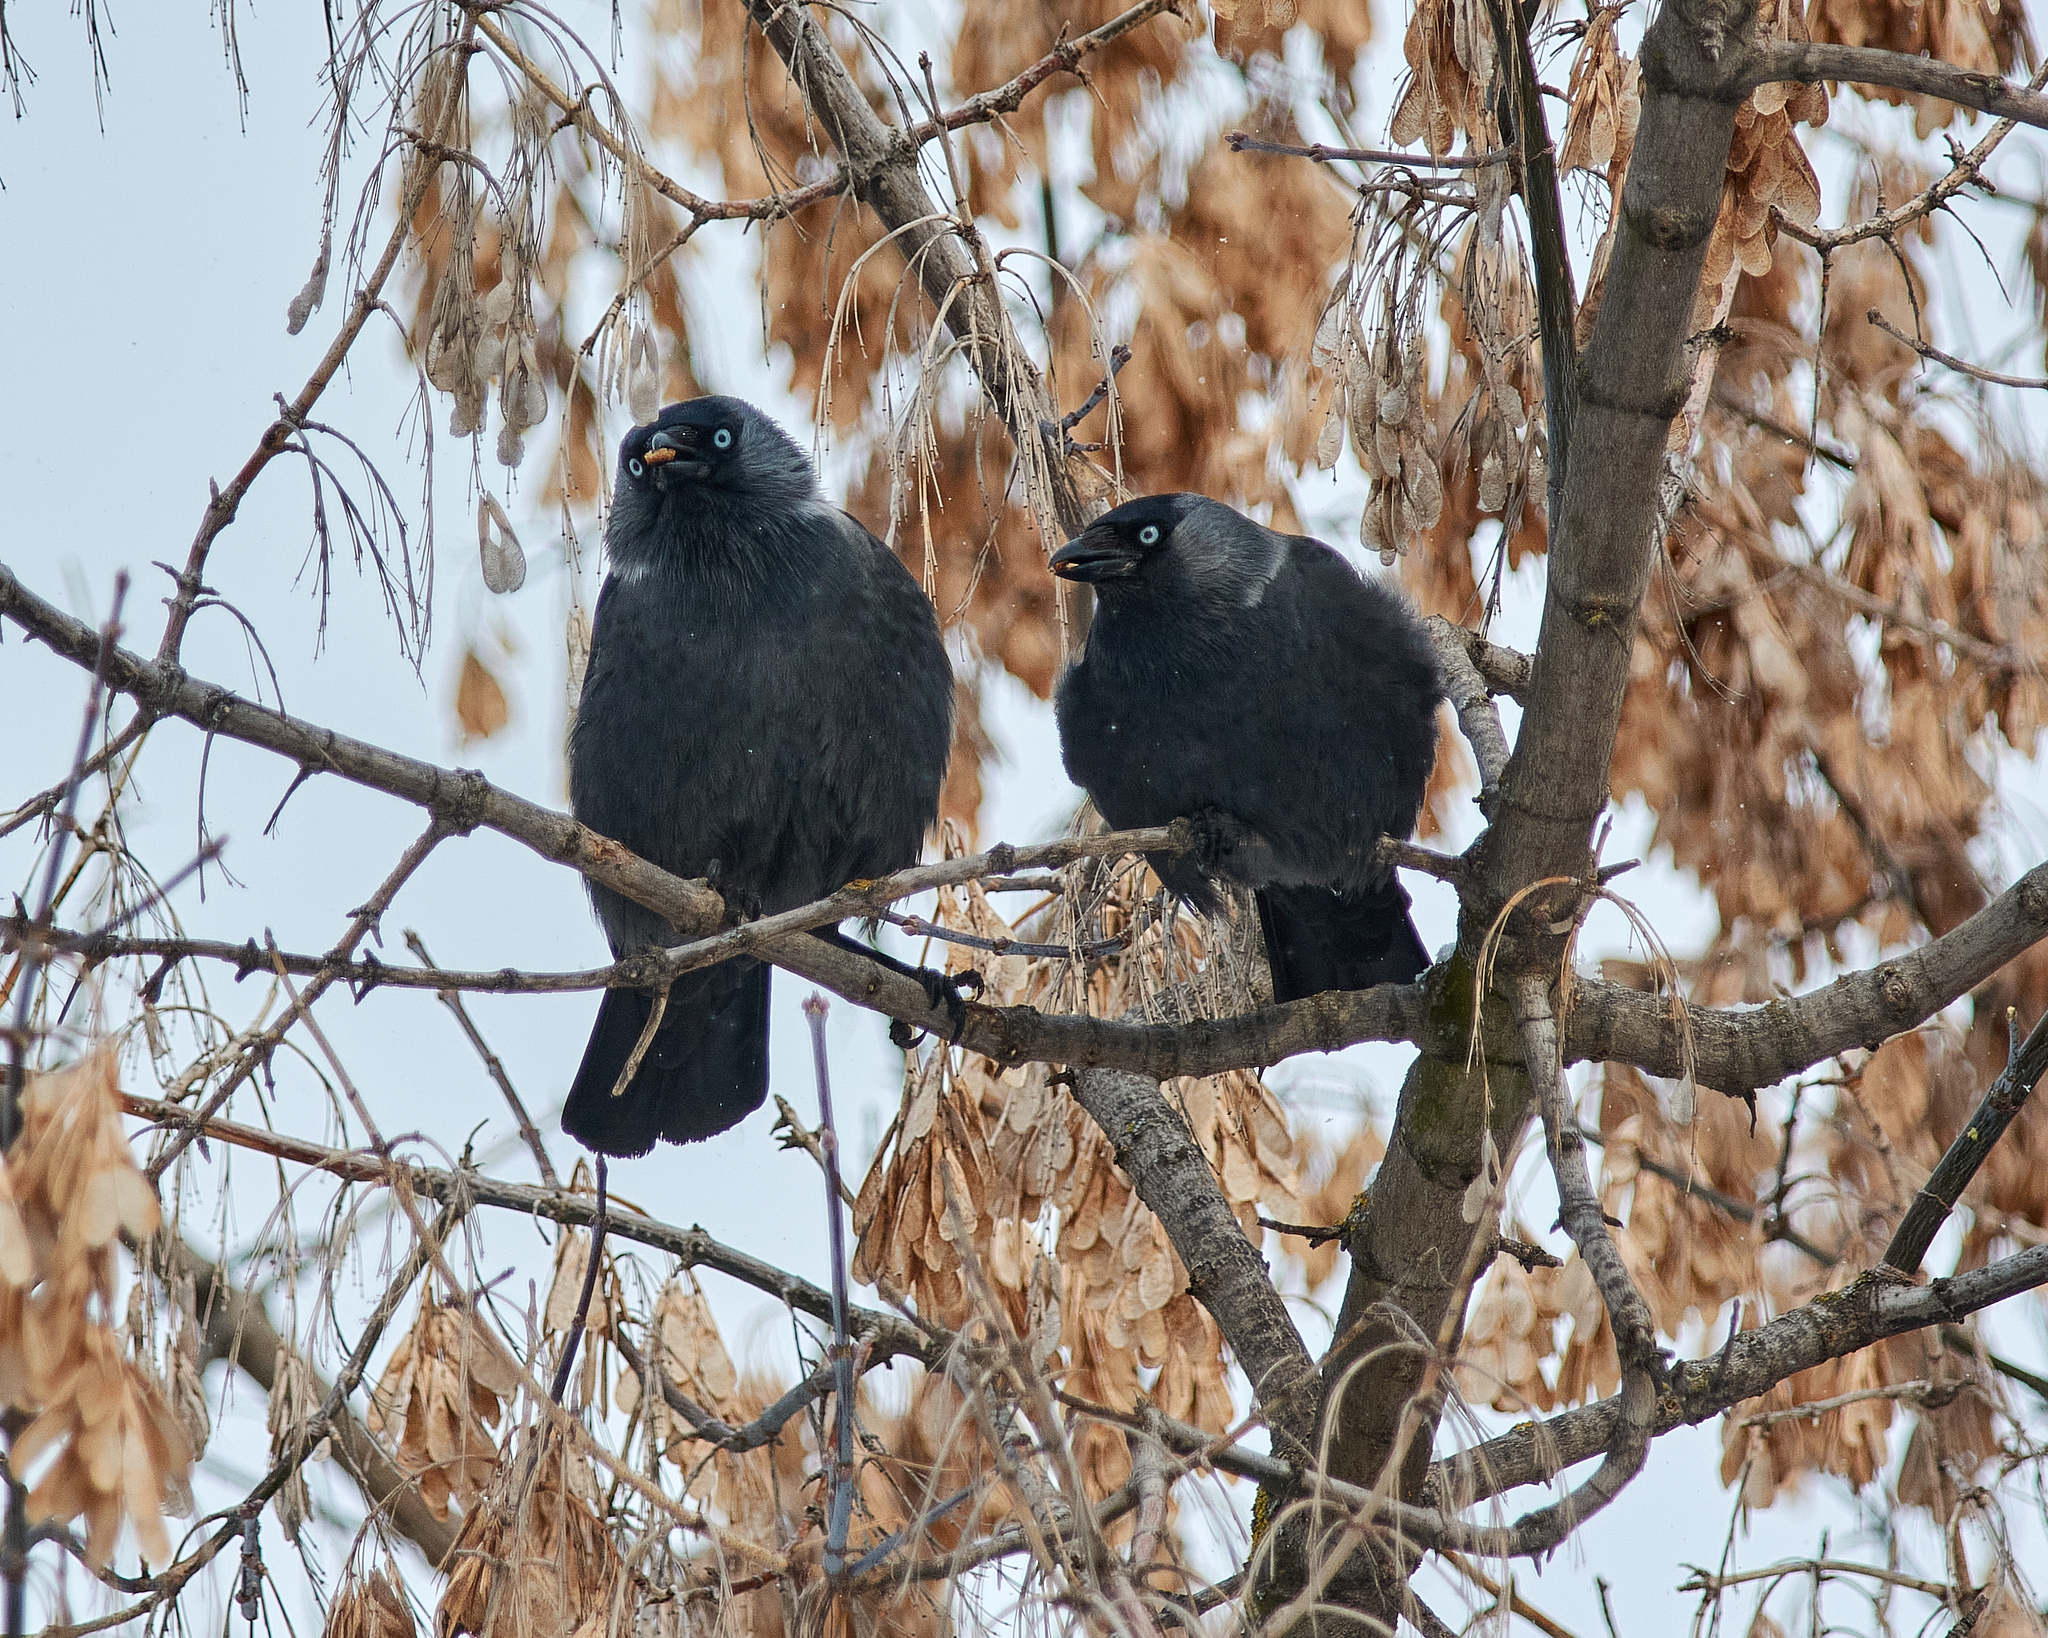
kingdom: Animalia
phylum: Chordata
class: Aves
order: Passeriformes
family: Corvidae
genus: Coloeus
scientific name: Coloeus monedula
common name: Western jackdaw
